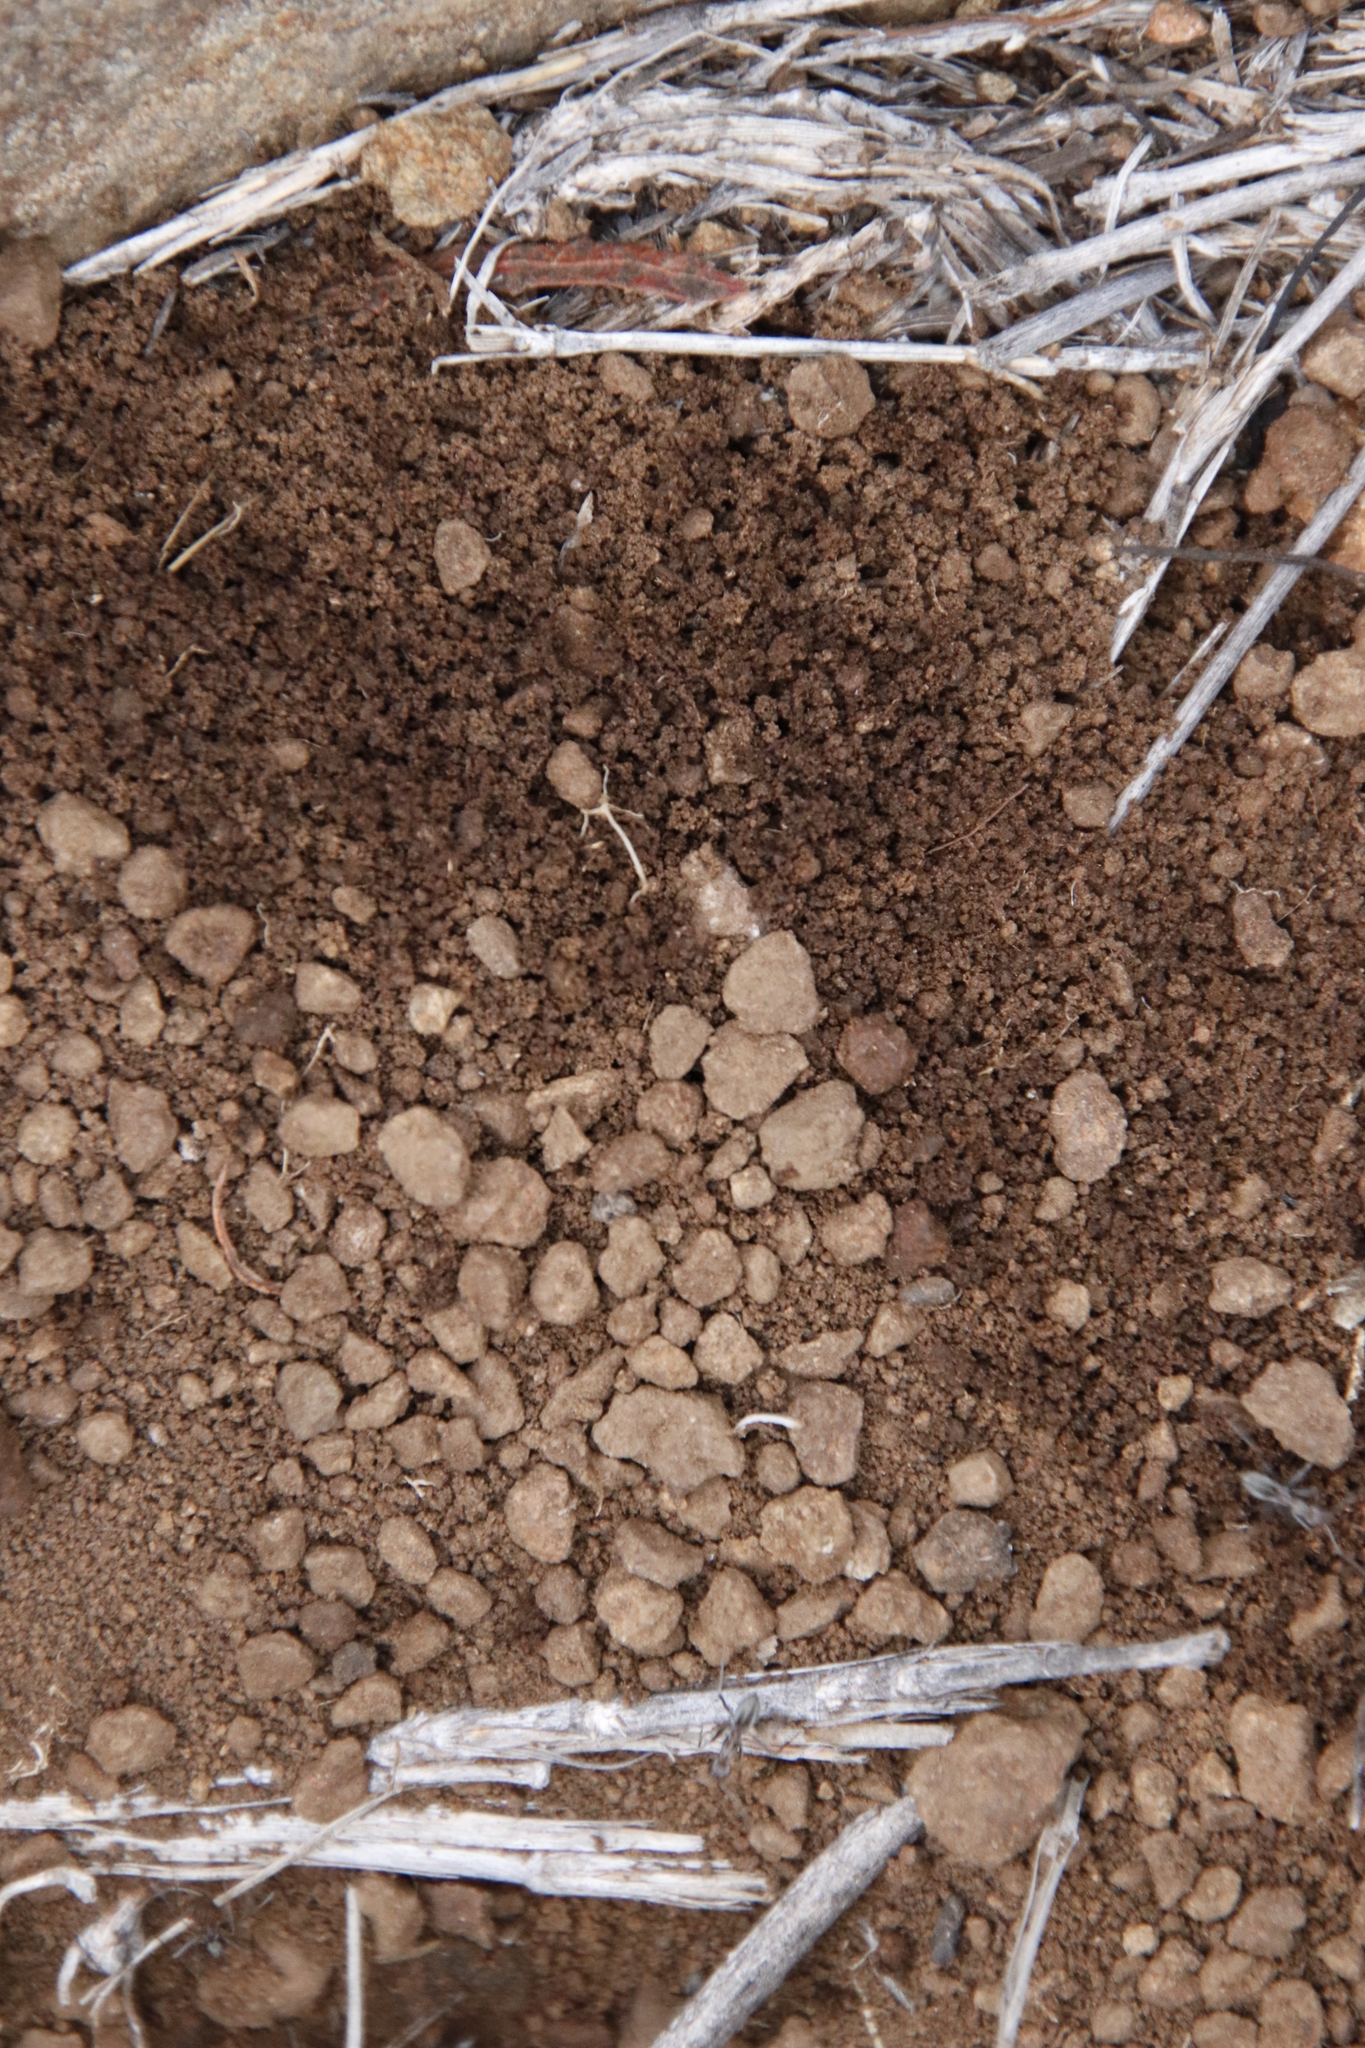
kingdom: Animalia
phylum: Arthropoda
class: Insecta
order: Hymenoptera
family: Formicidae
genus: Anoplolepis
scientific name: Anoplolepis custodiens
